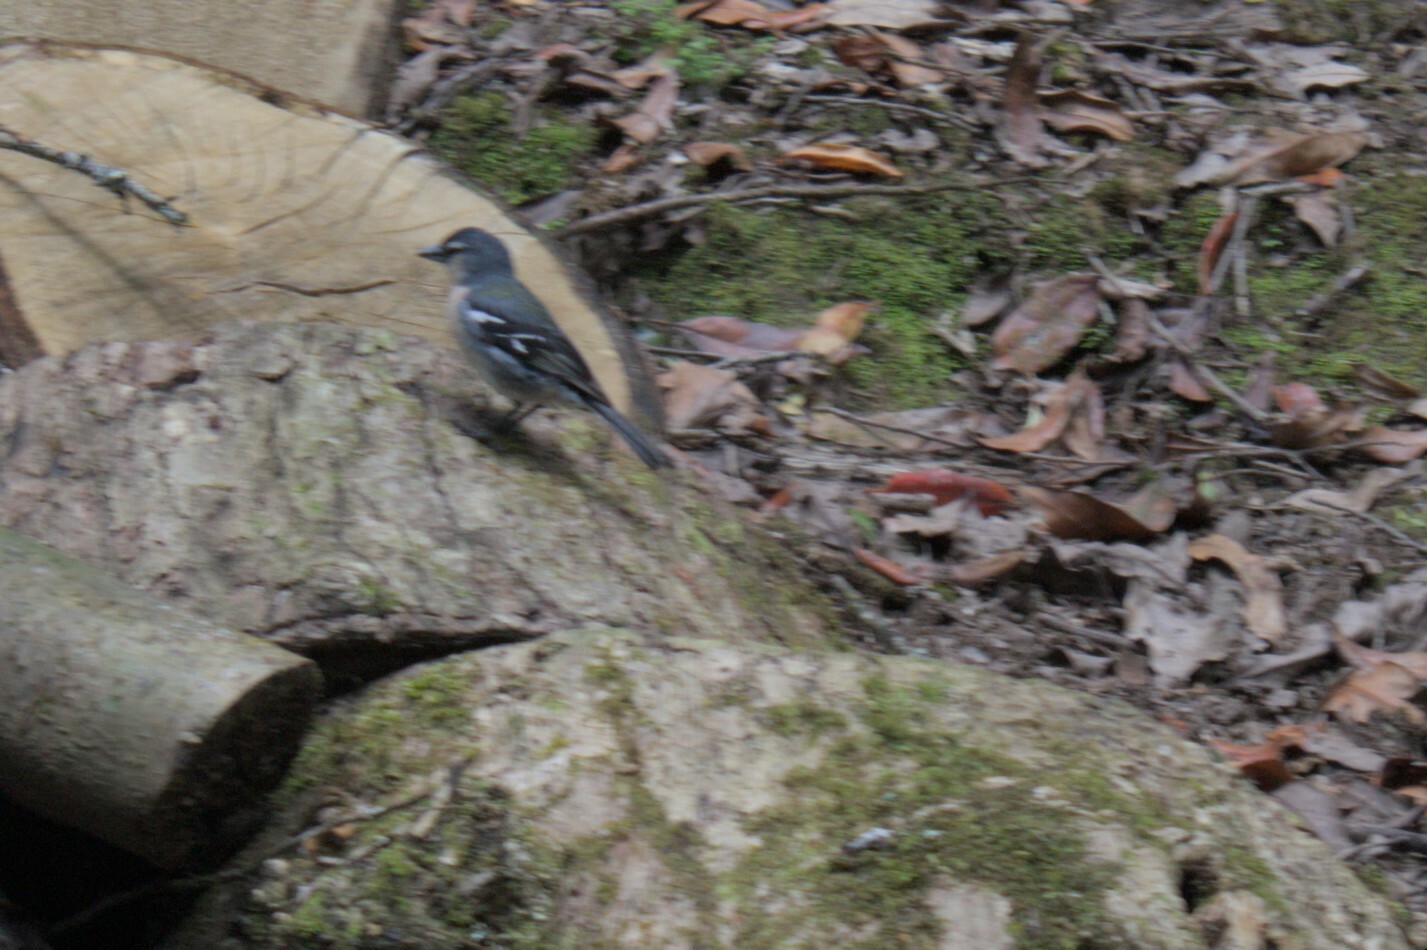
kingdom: Animalia
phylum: Chordata
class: Aves
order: Passeriformes
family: Fringillidae
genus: Fringilla
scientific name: Fringilla moreletti
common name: Azores chaffinch
